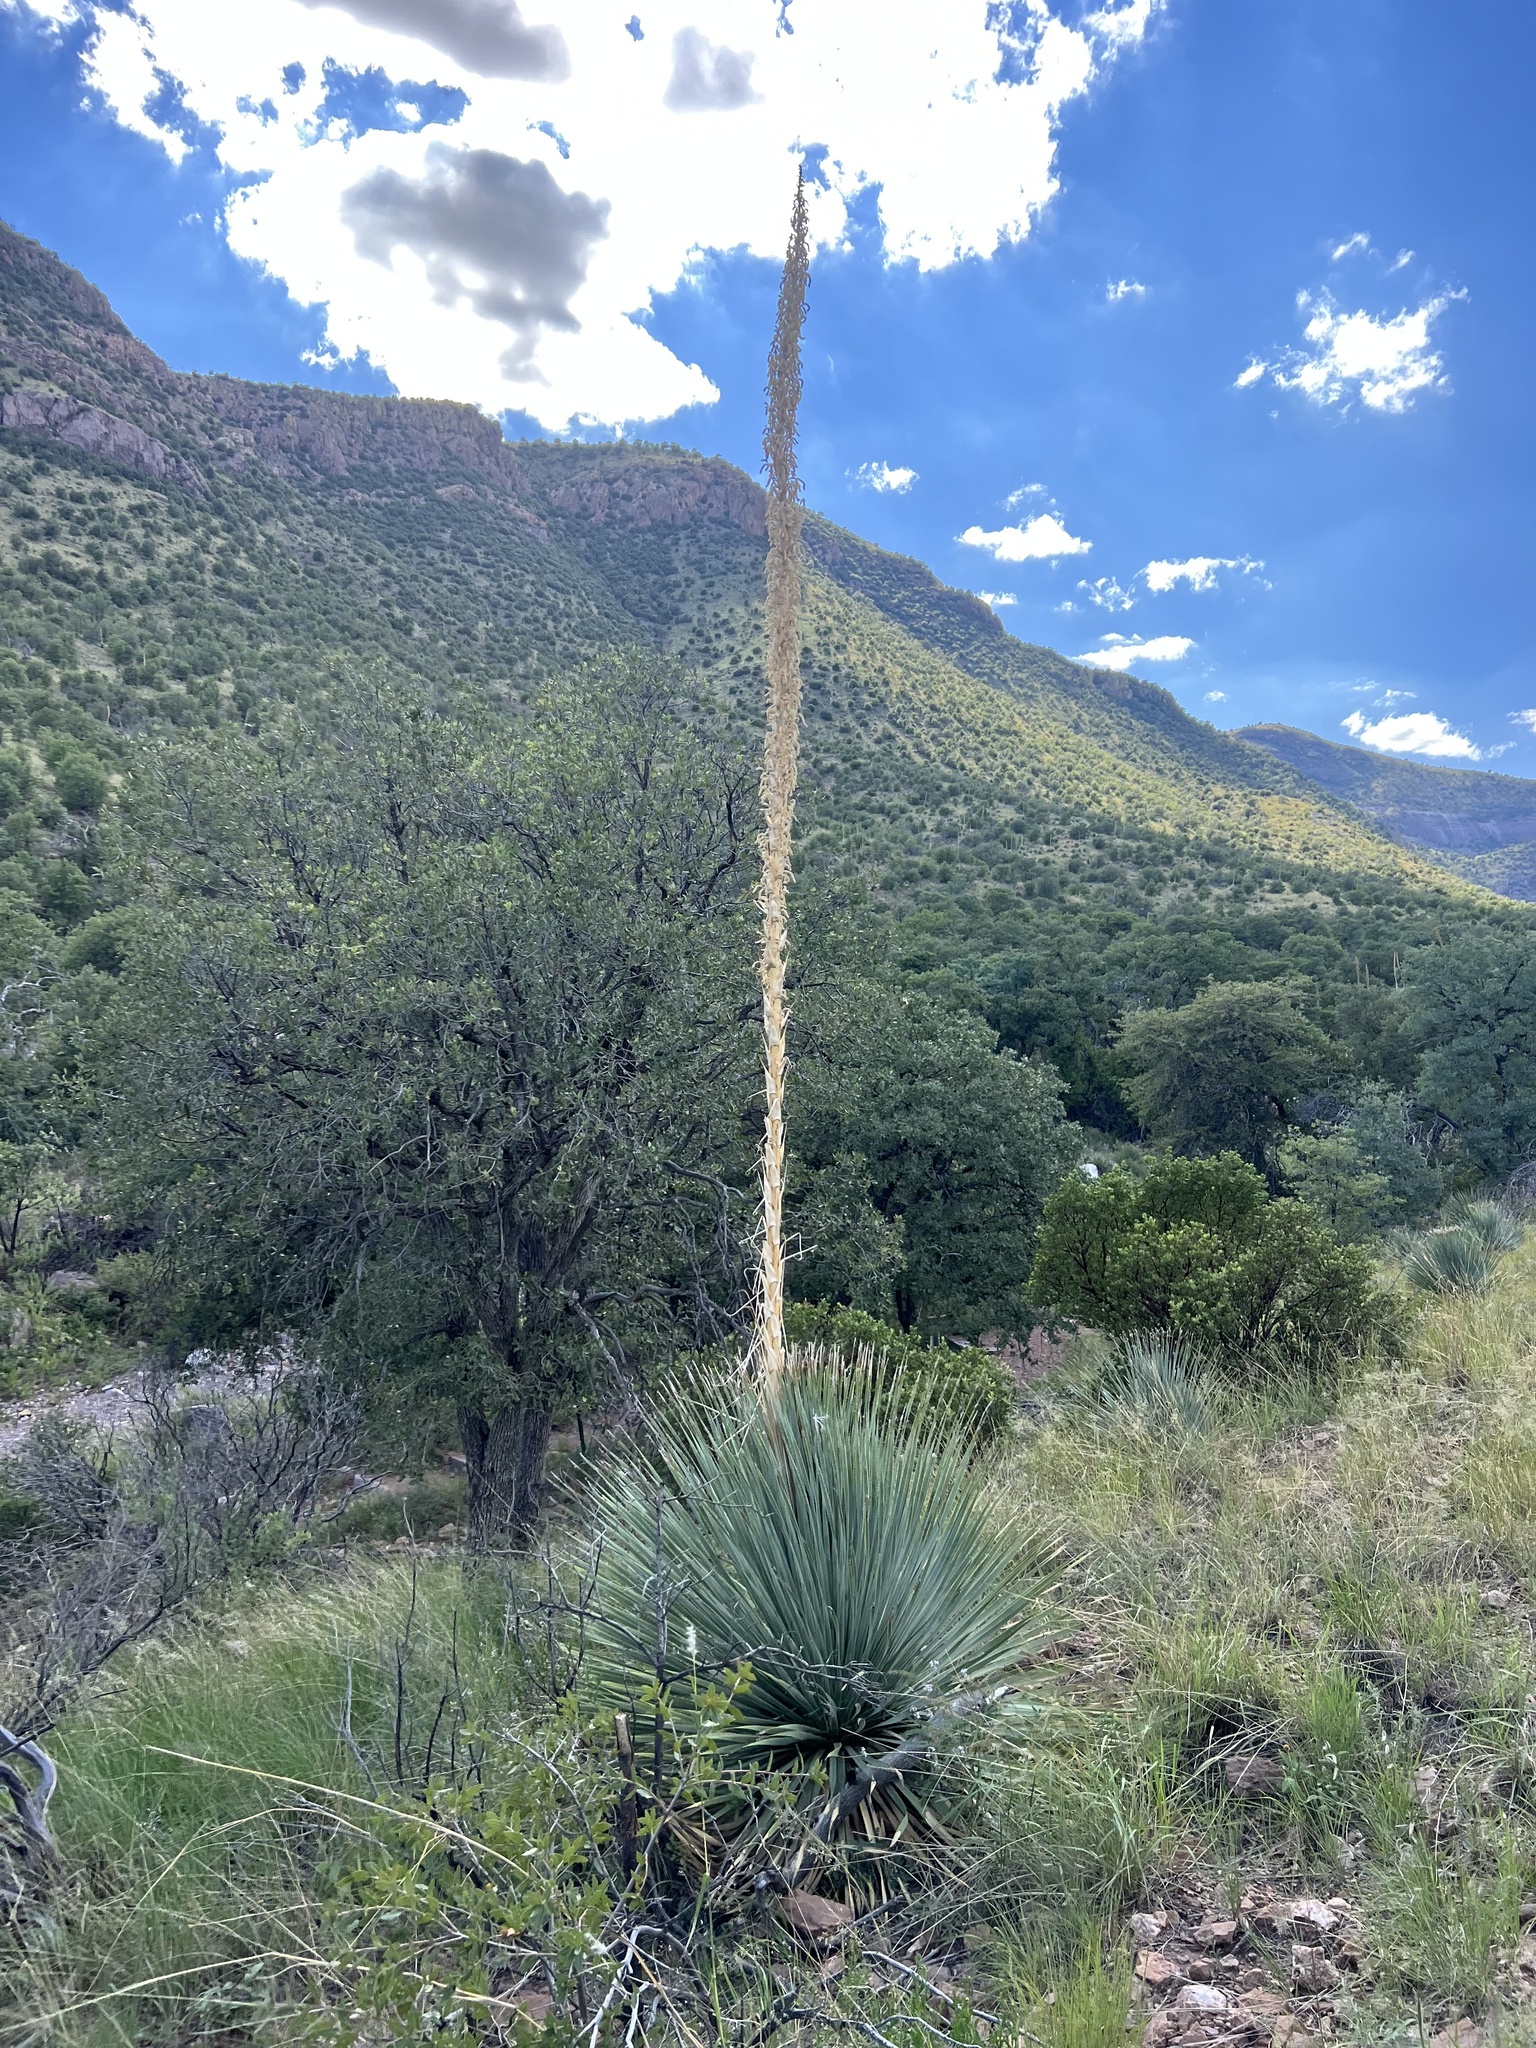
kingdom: Plantae
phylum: Tracheophyta
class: Liliopsida
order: Asparagales
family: Asparagaceae
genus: Dasylirion
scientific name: Dasylirion wheeleri
